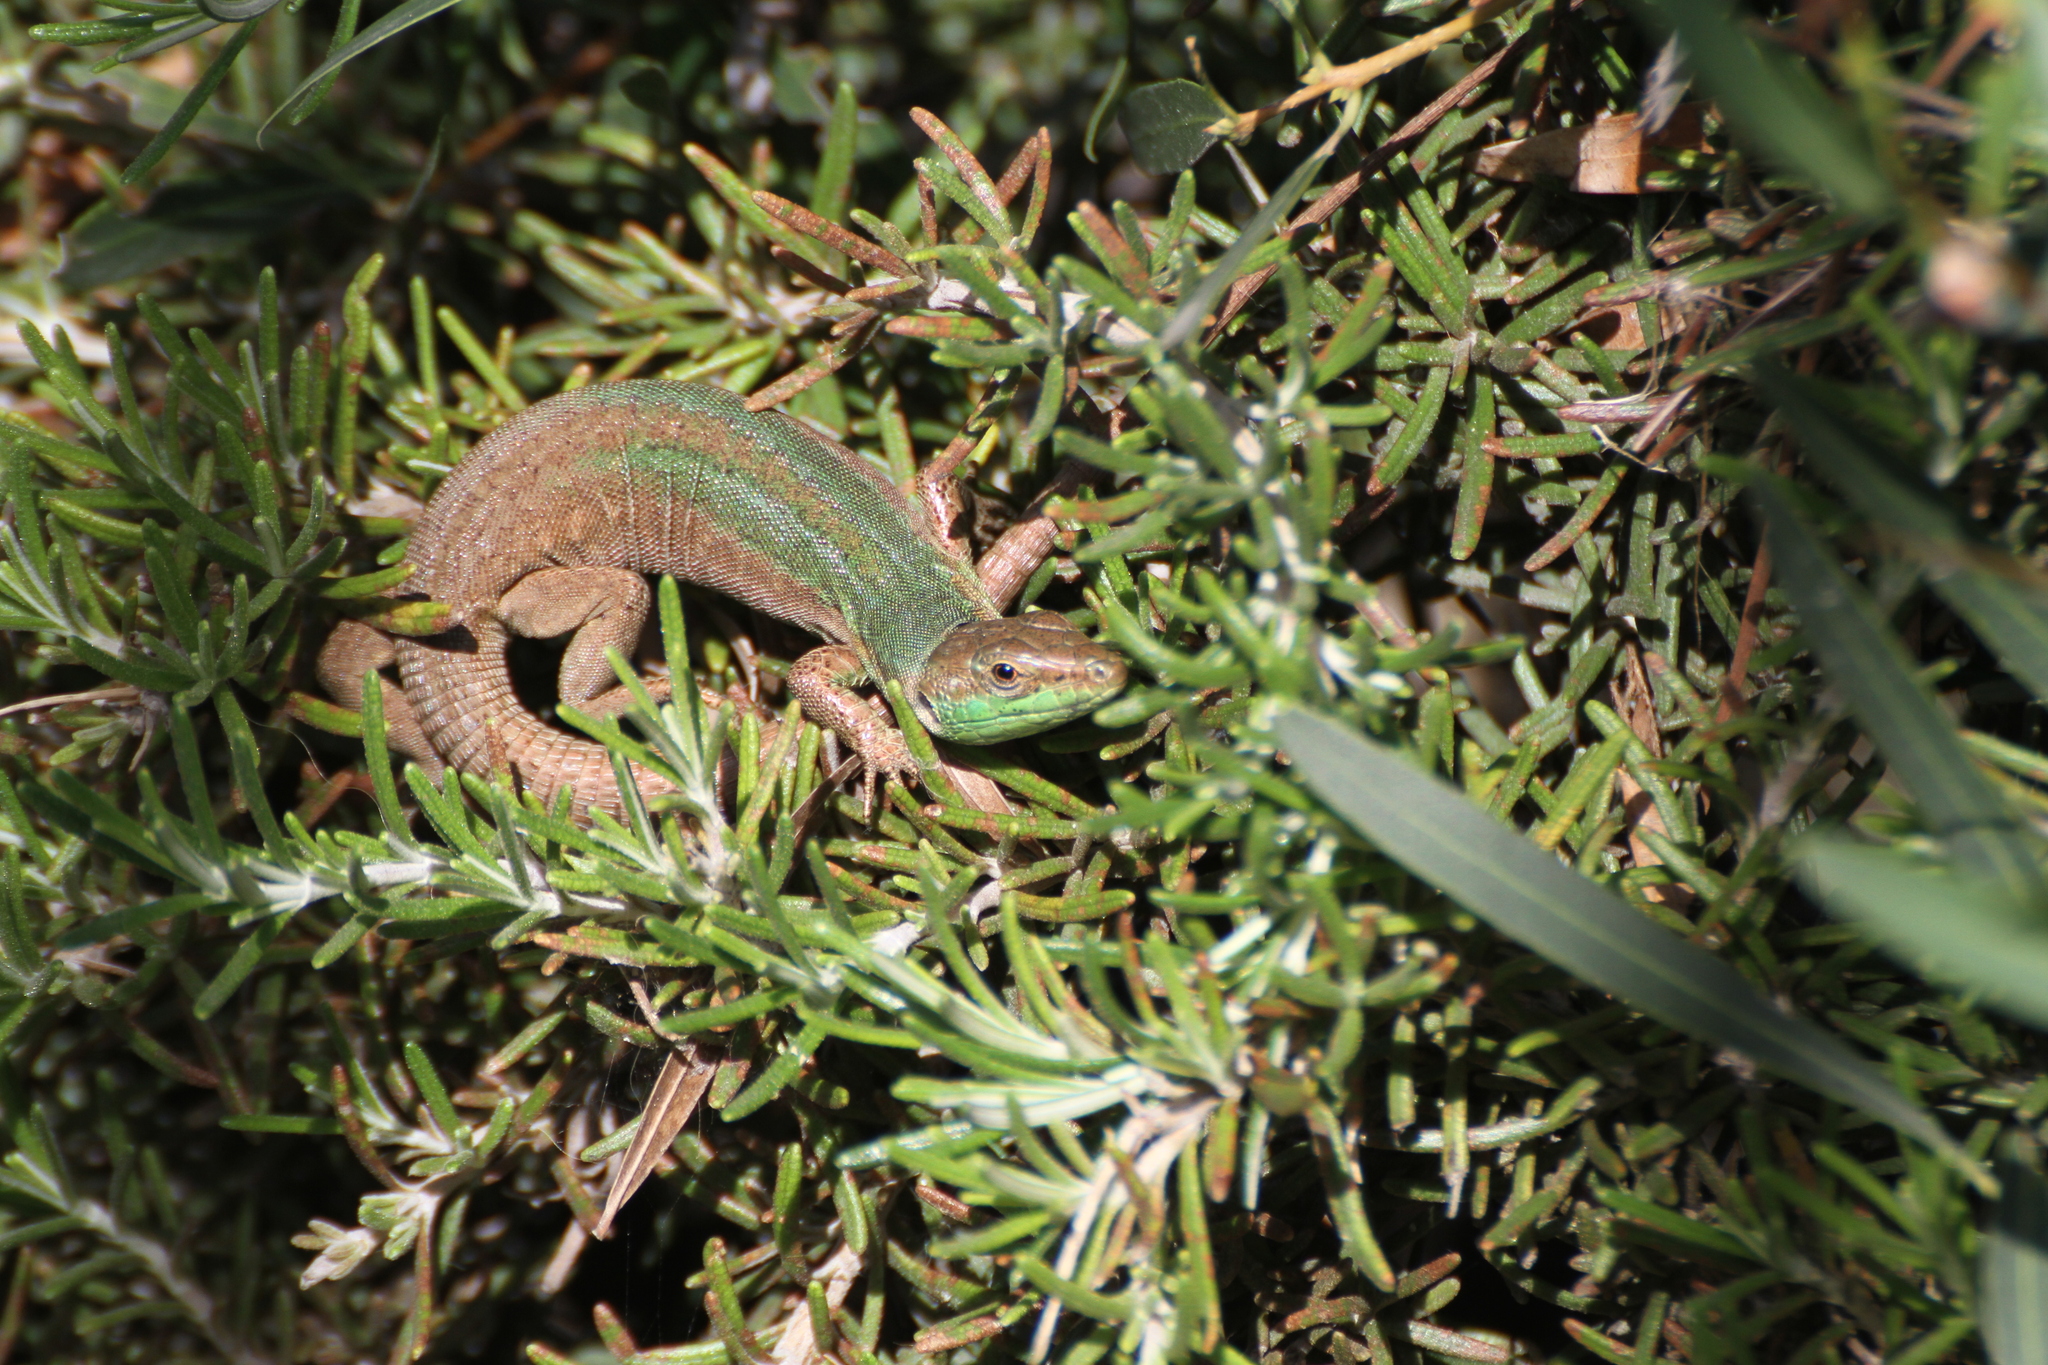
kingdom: Animalia
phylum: Chordata
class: Squamata
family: Lacertidae
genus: Podarcis
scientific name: Podarcis siculus
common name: Italian wall lizard
